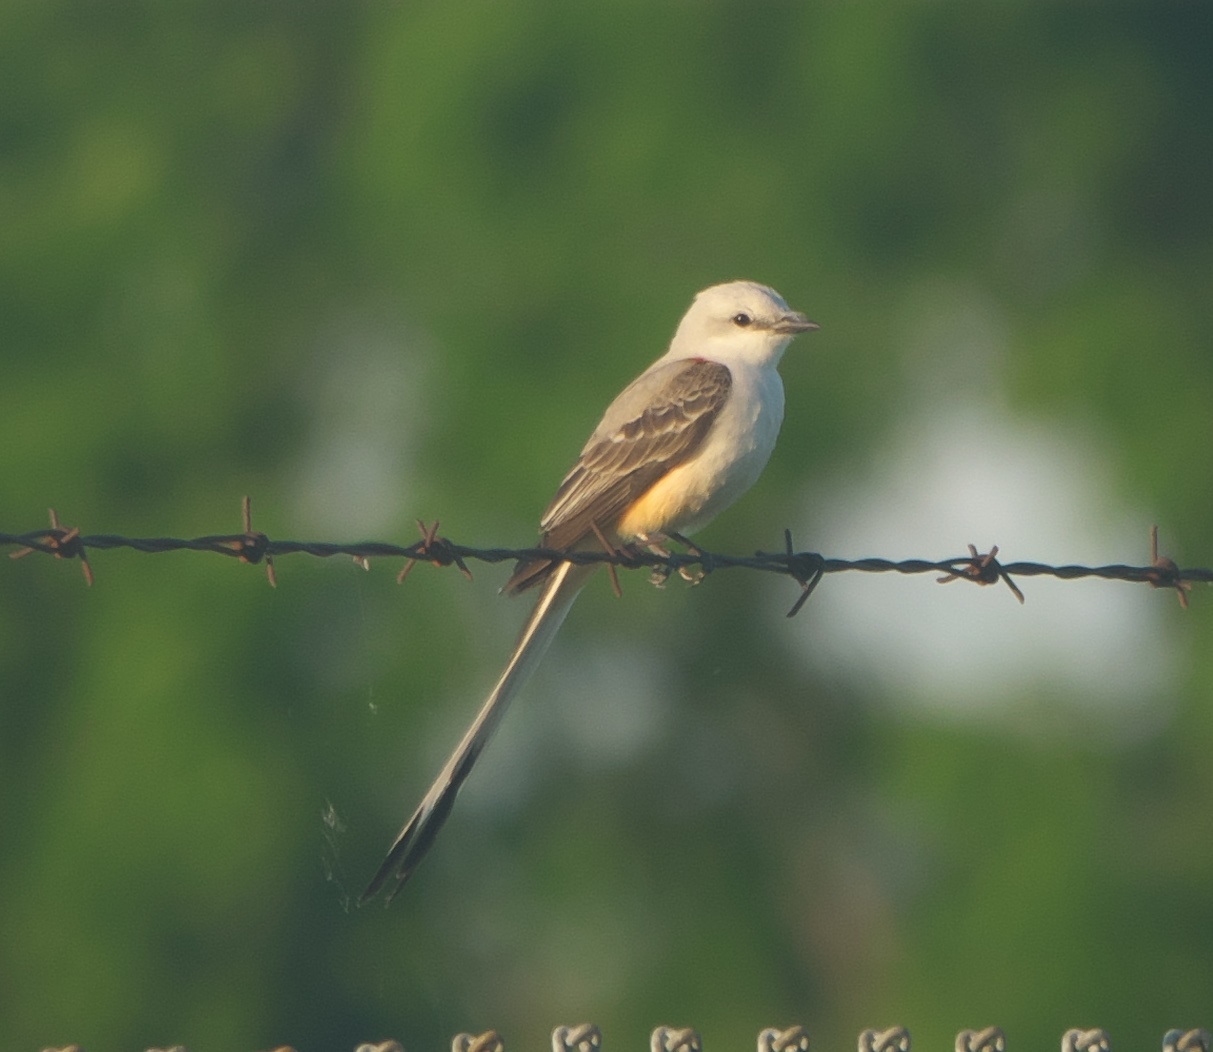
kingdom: Animalia
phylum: Chordata
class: Aves
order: Passeriformes
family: Tyrannidae
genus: Tyrannus
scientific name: Tyrannus forficatus
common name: Scissor-tailed flycatcher
